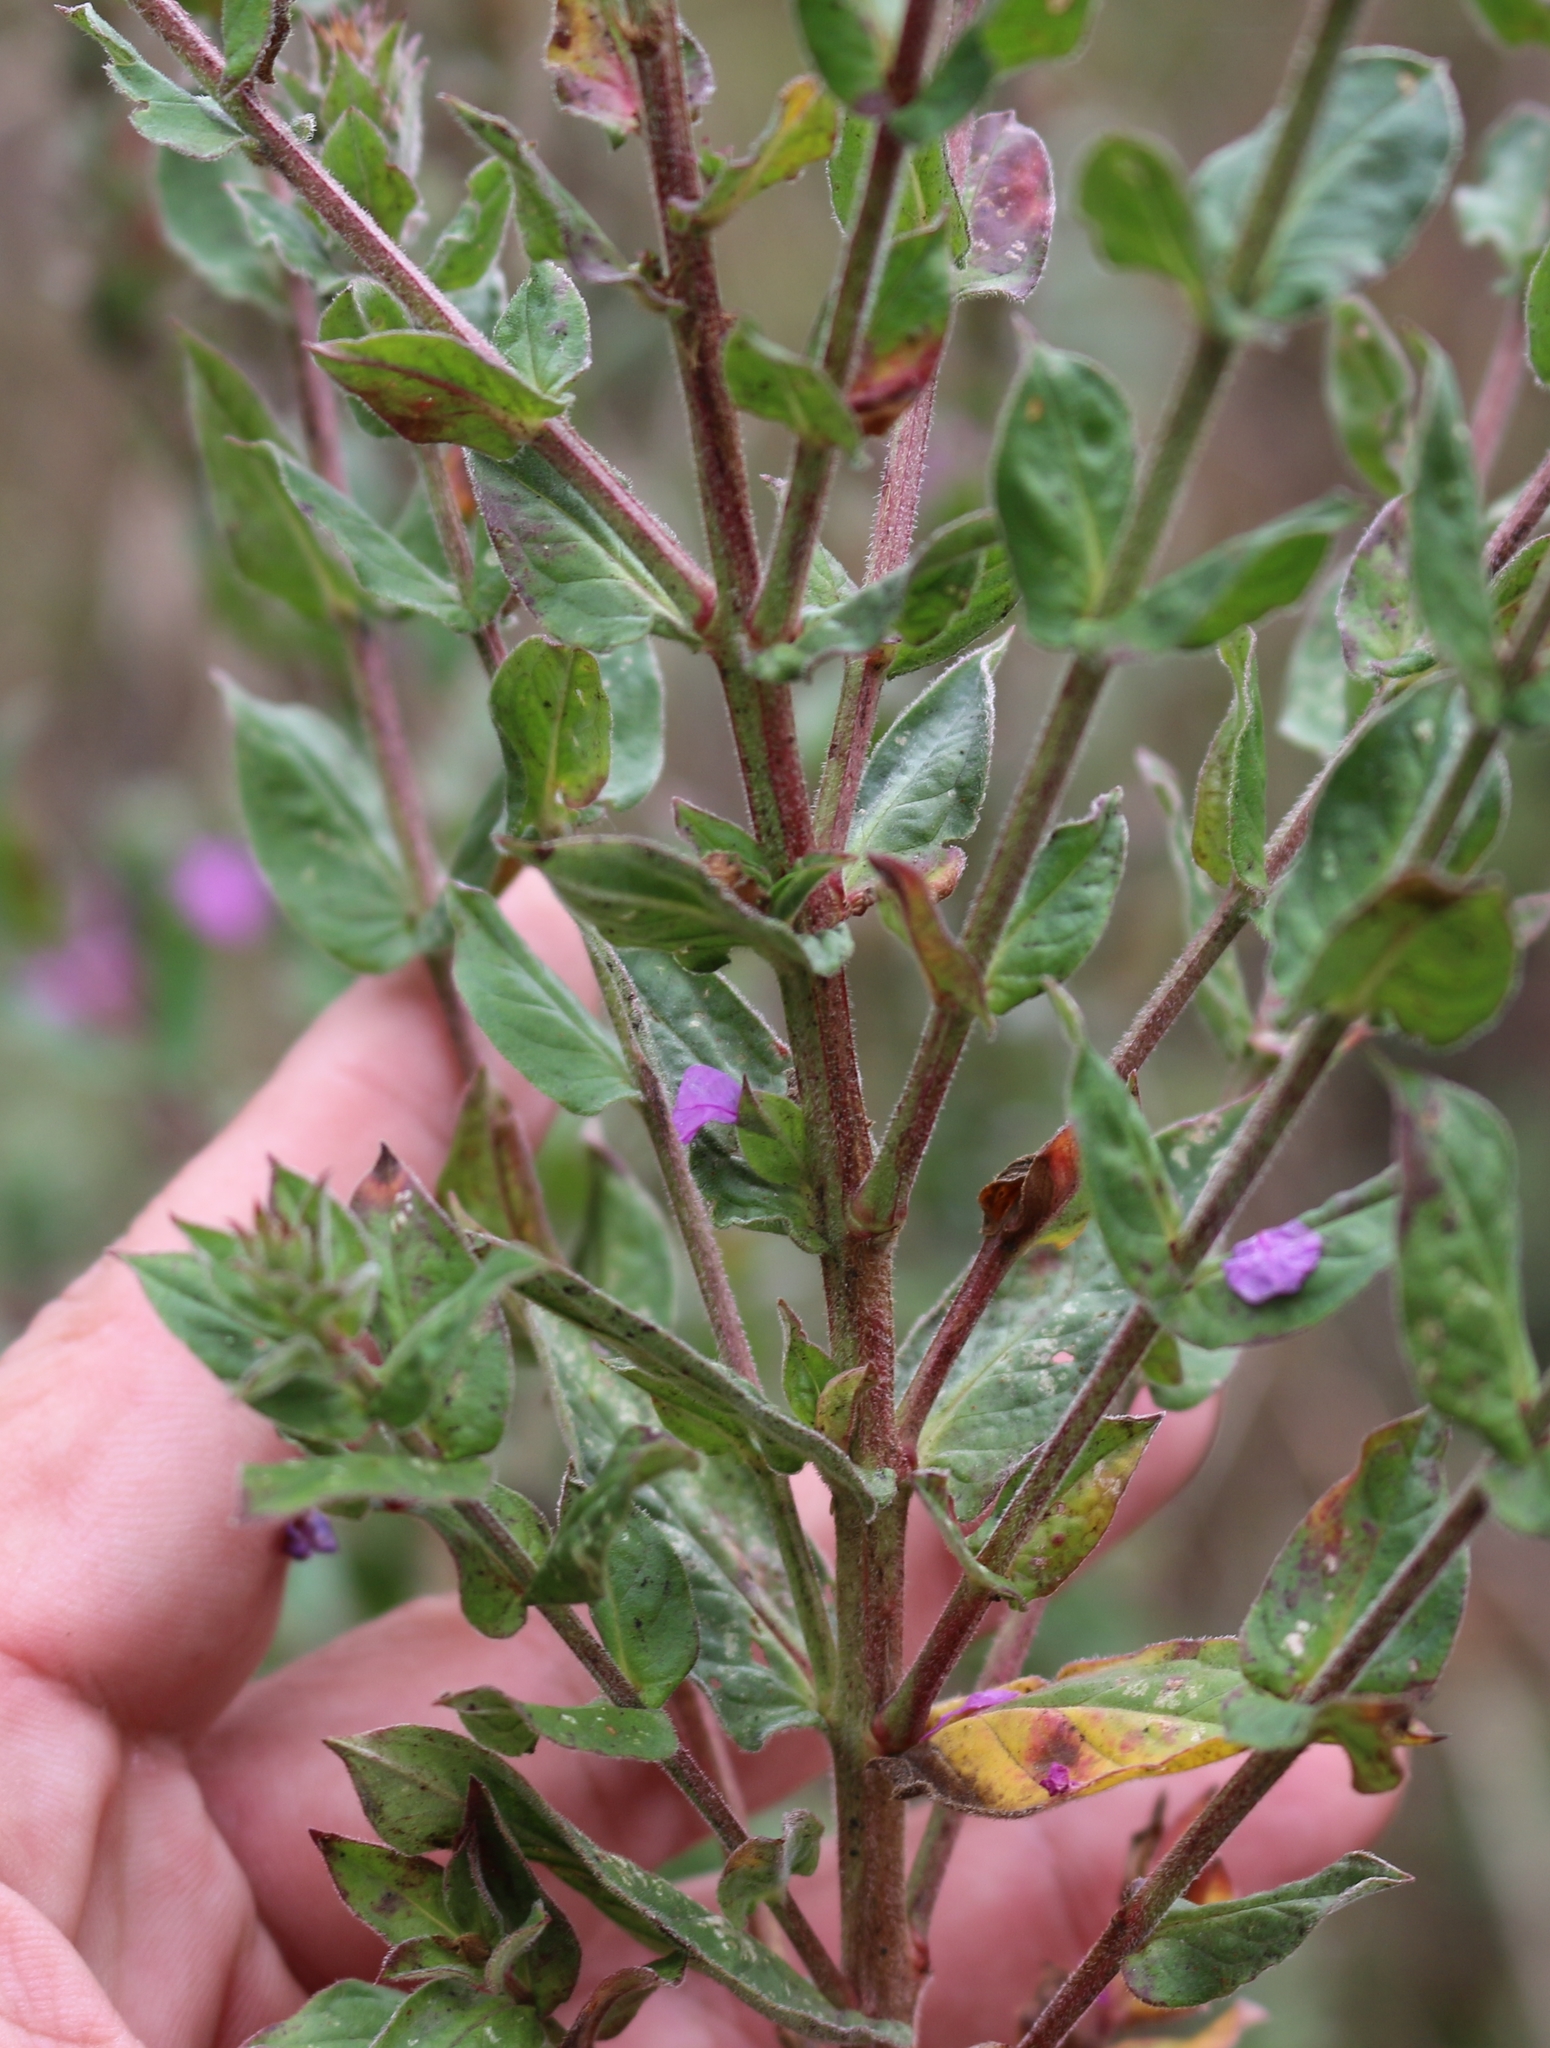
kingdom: Plantae
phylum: Tracheophyta
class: Magnoliopsida
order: Myrtales
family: Lythraceae
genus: Lythrum
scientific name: Lythrum salicaria
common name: Purple loosestrife
